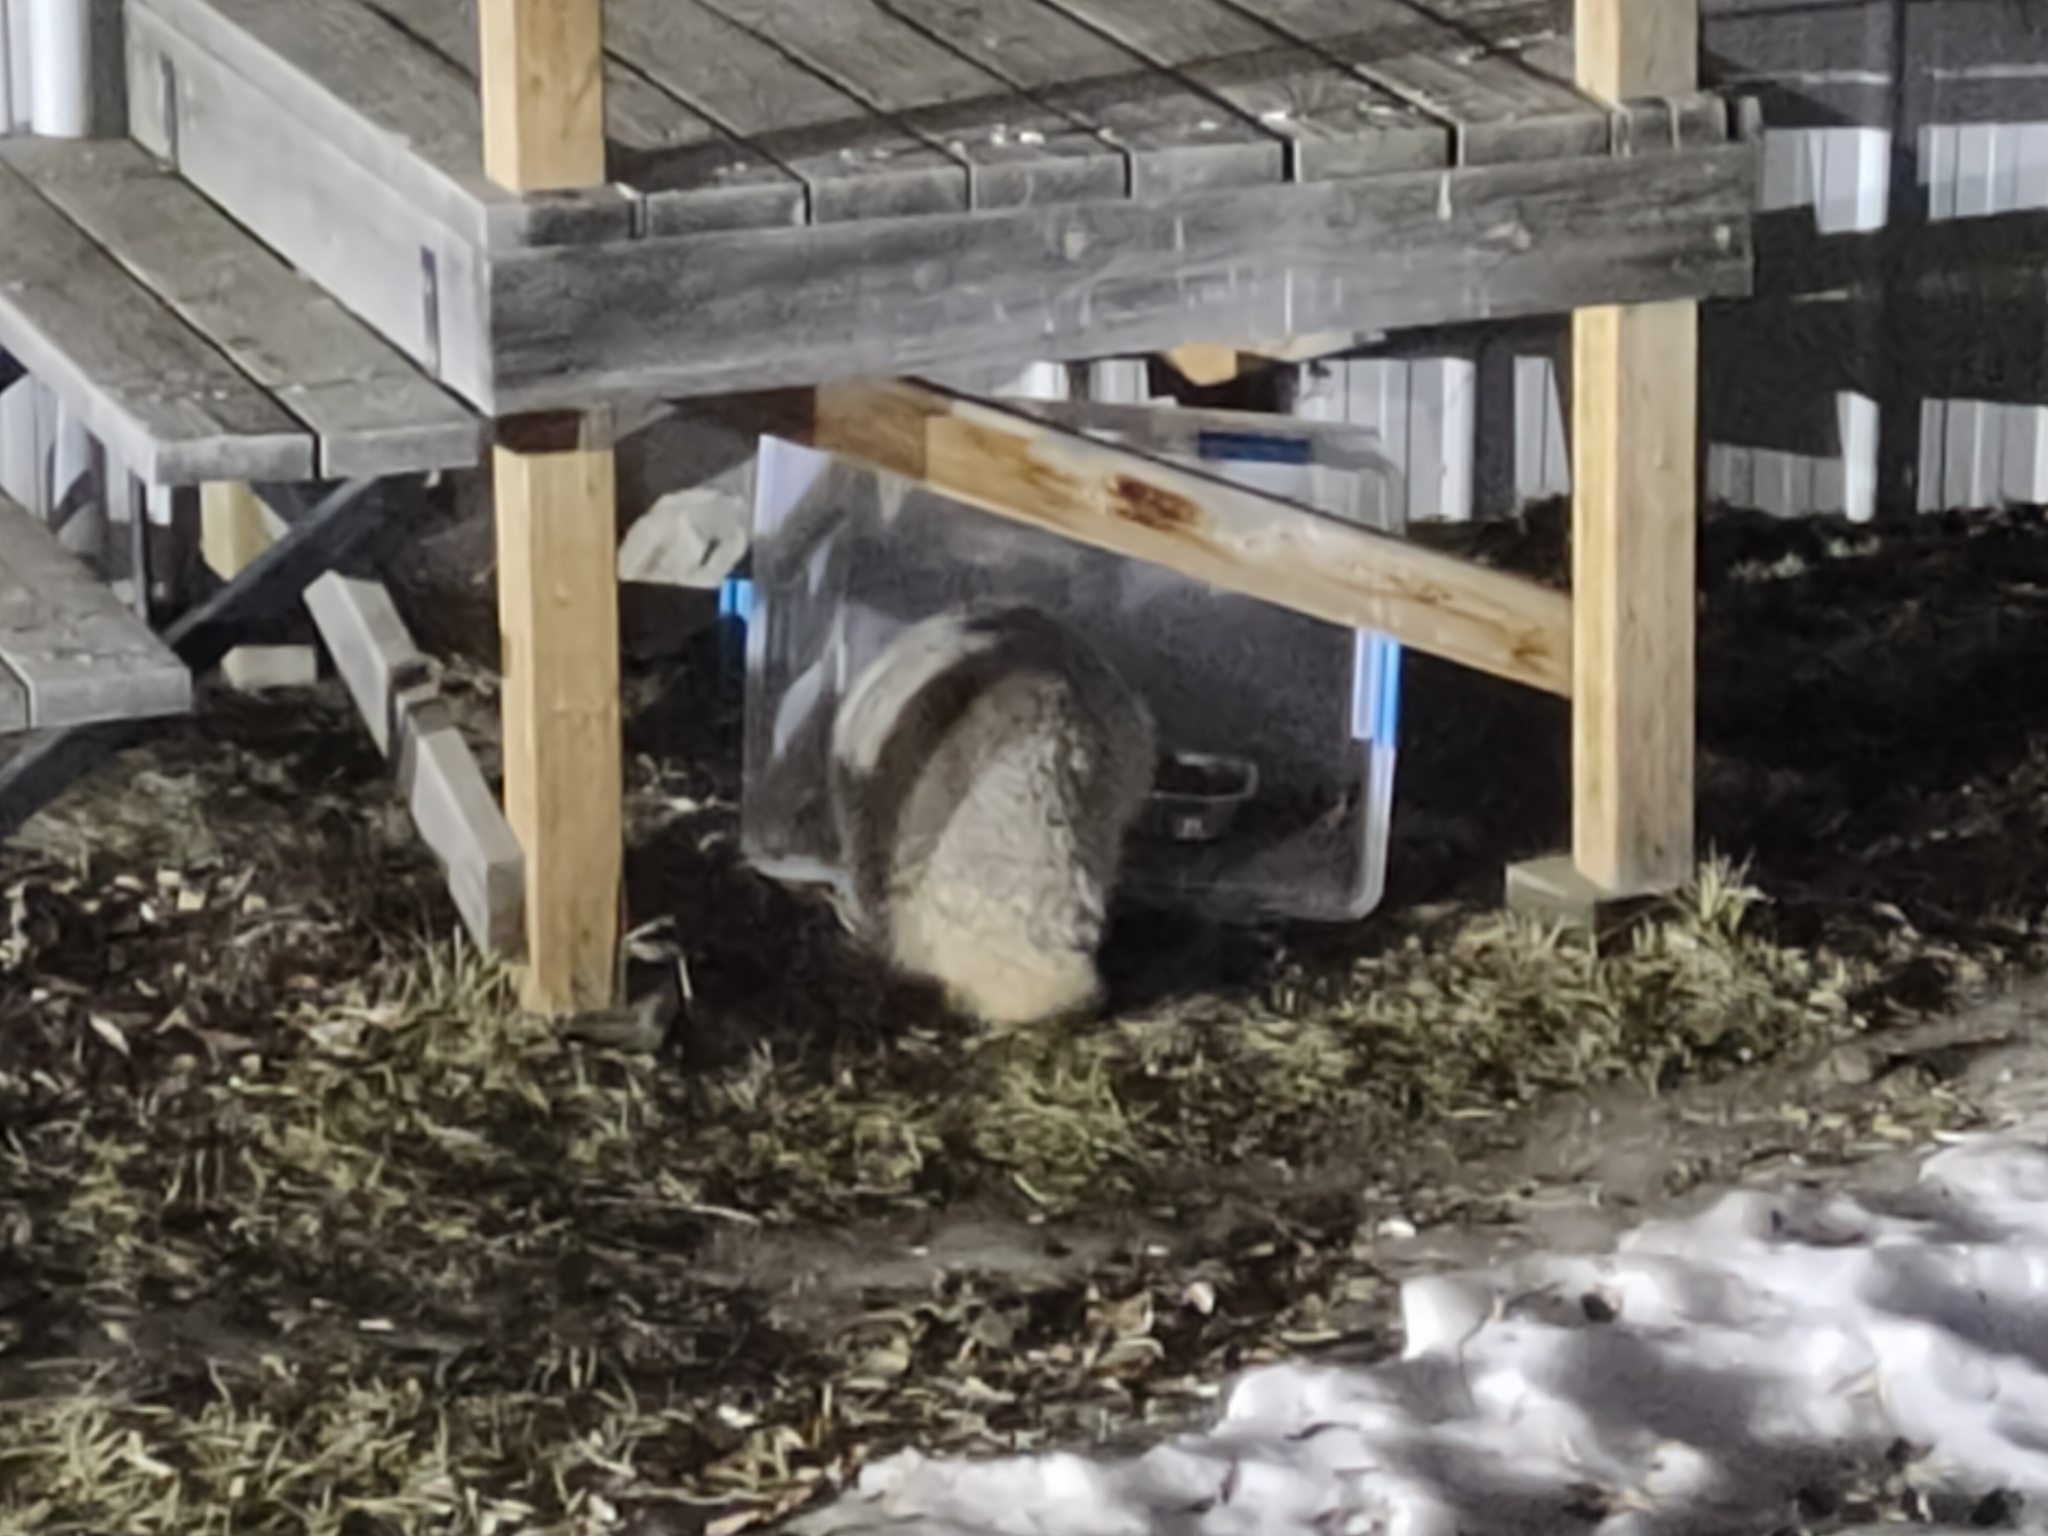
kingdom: Animalia
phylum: Chordata
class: Mammalia
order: Carnivora
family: Mustelidae
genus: Taxidea
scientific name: Taxidea taxus
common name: American badger
